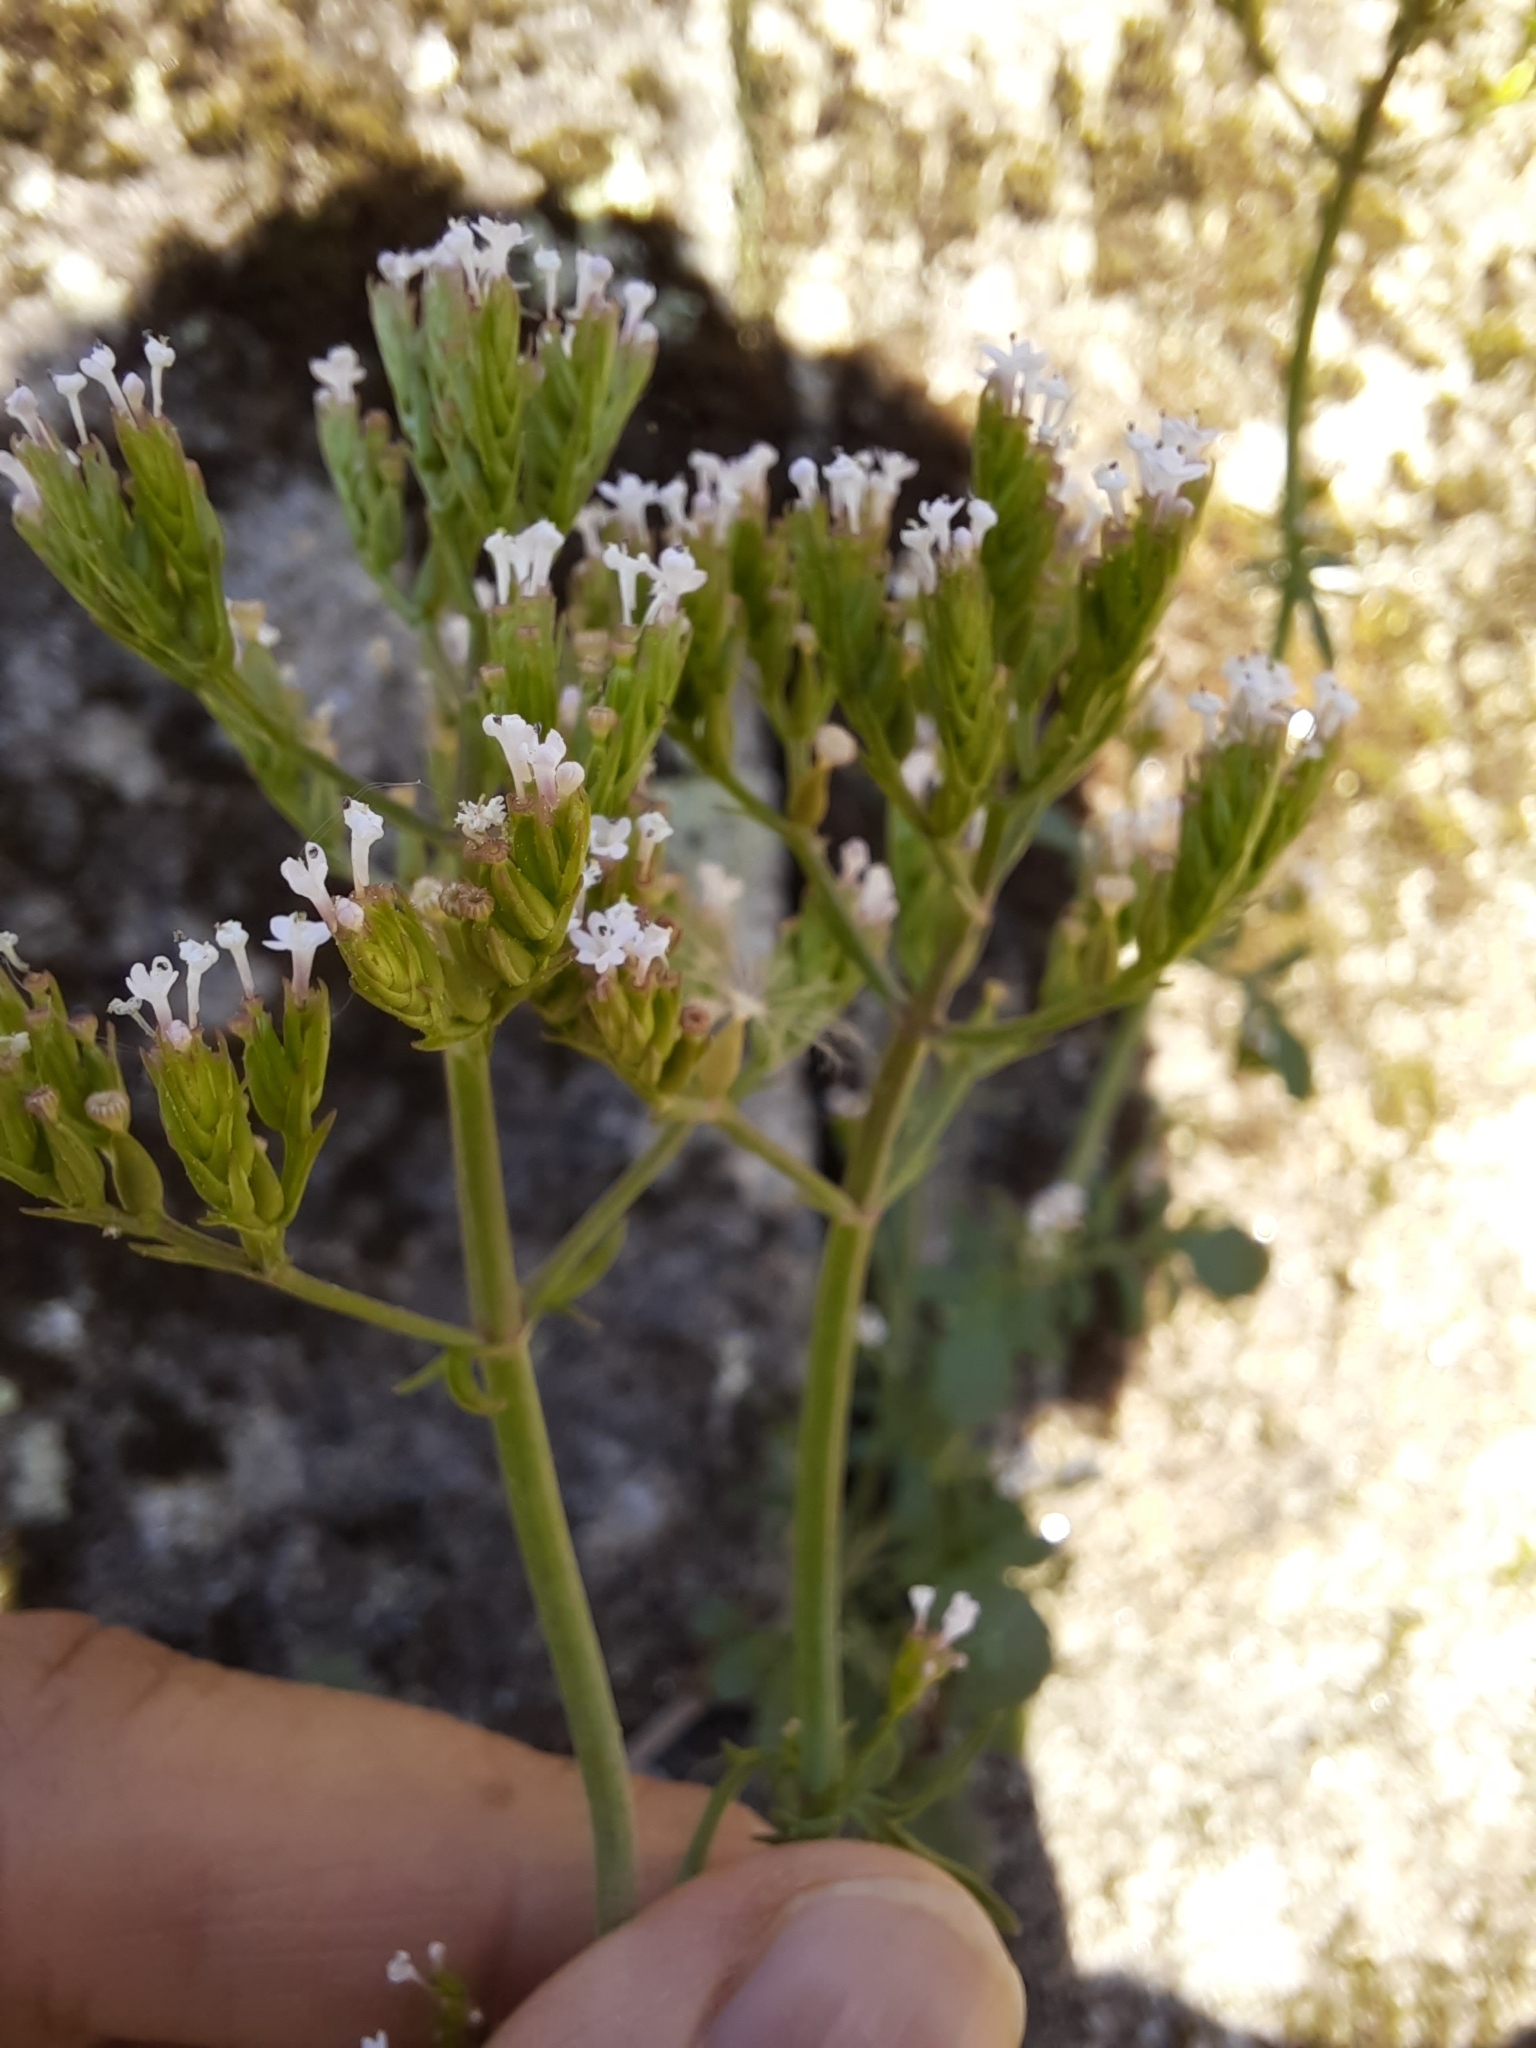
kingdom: Plantae
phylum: Tracheophyta
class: Magnoliopsida
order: Dipsacales
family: Caprifoliaceae
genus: Centranthus
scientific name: Centranthus calcitrapae
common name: Annual valerian
